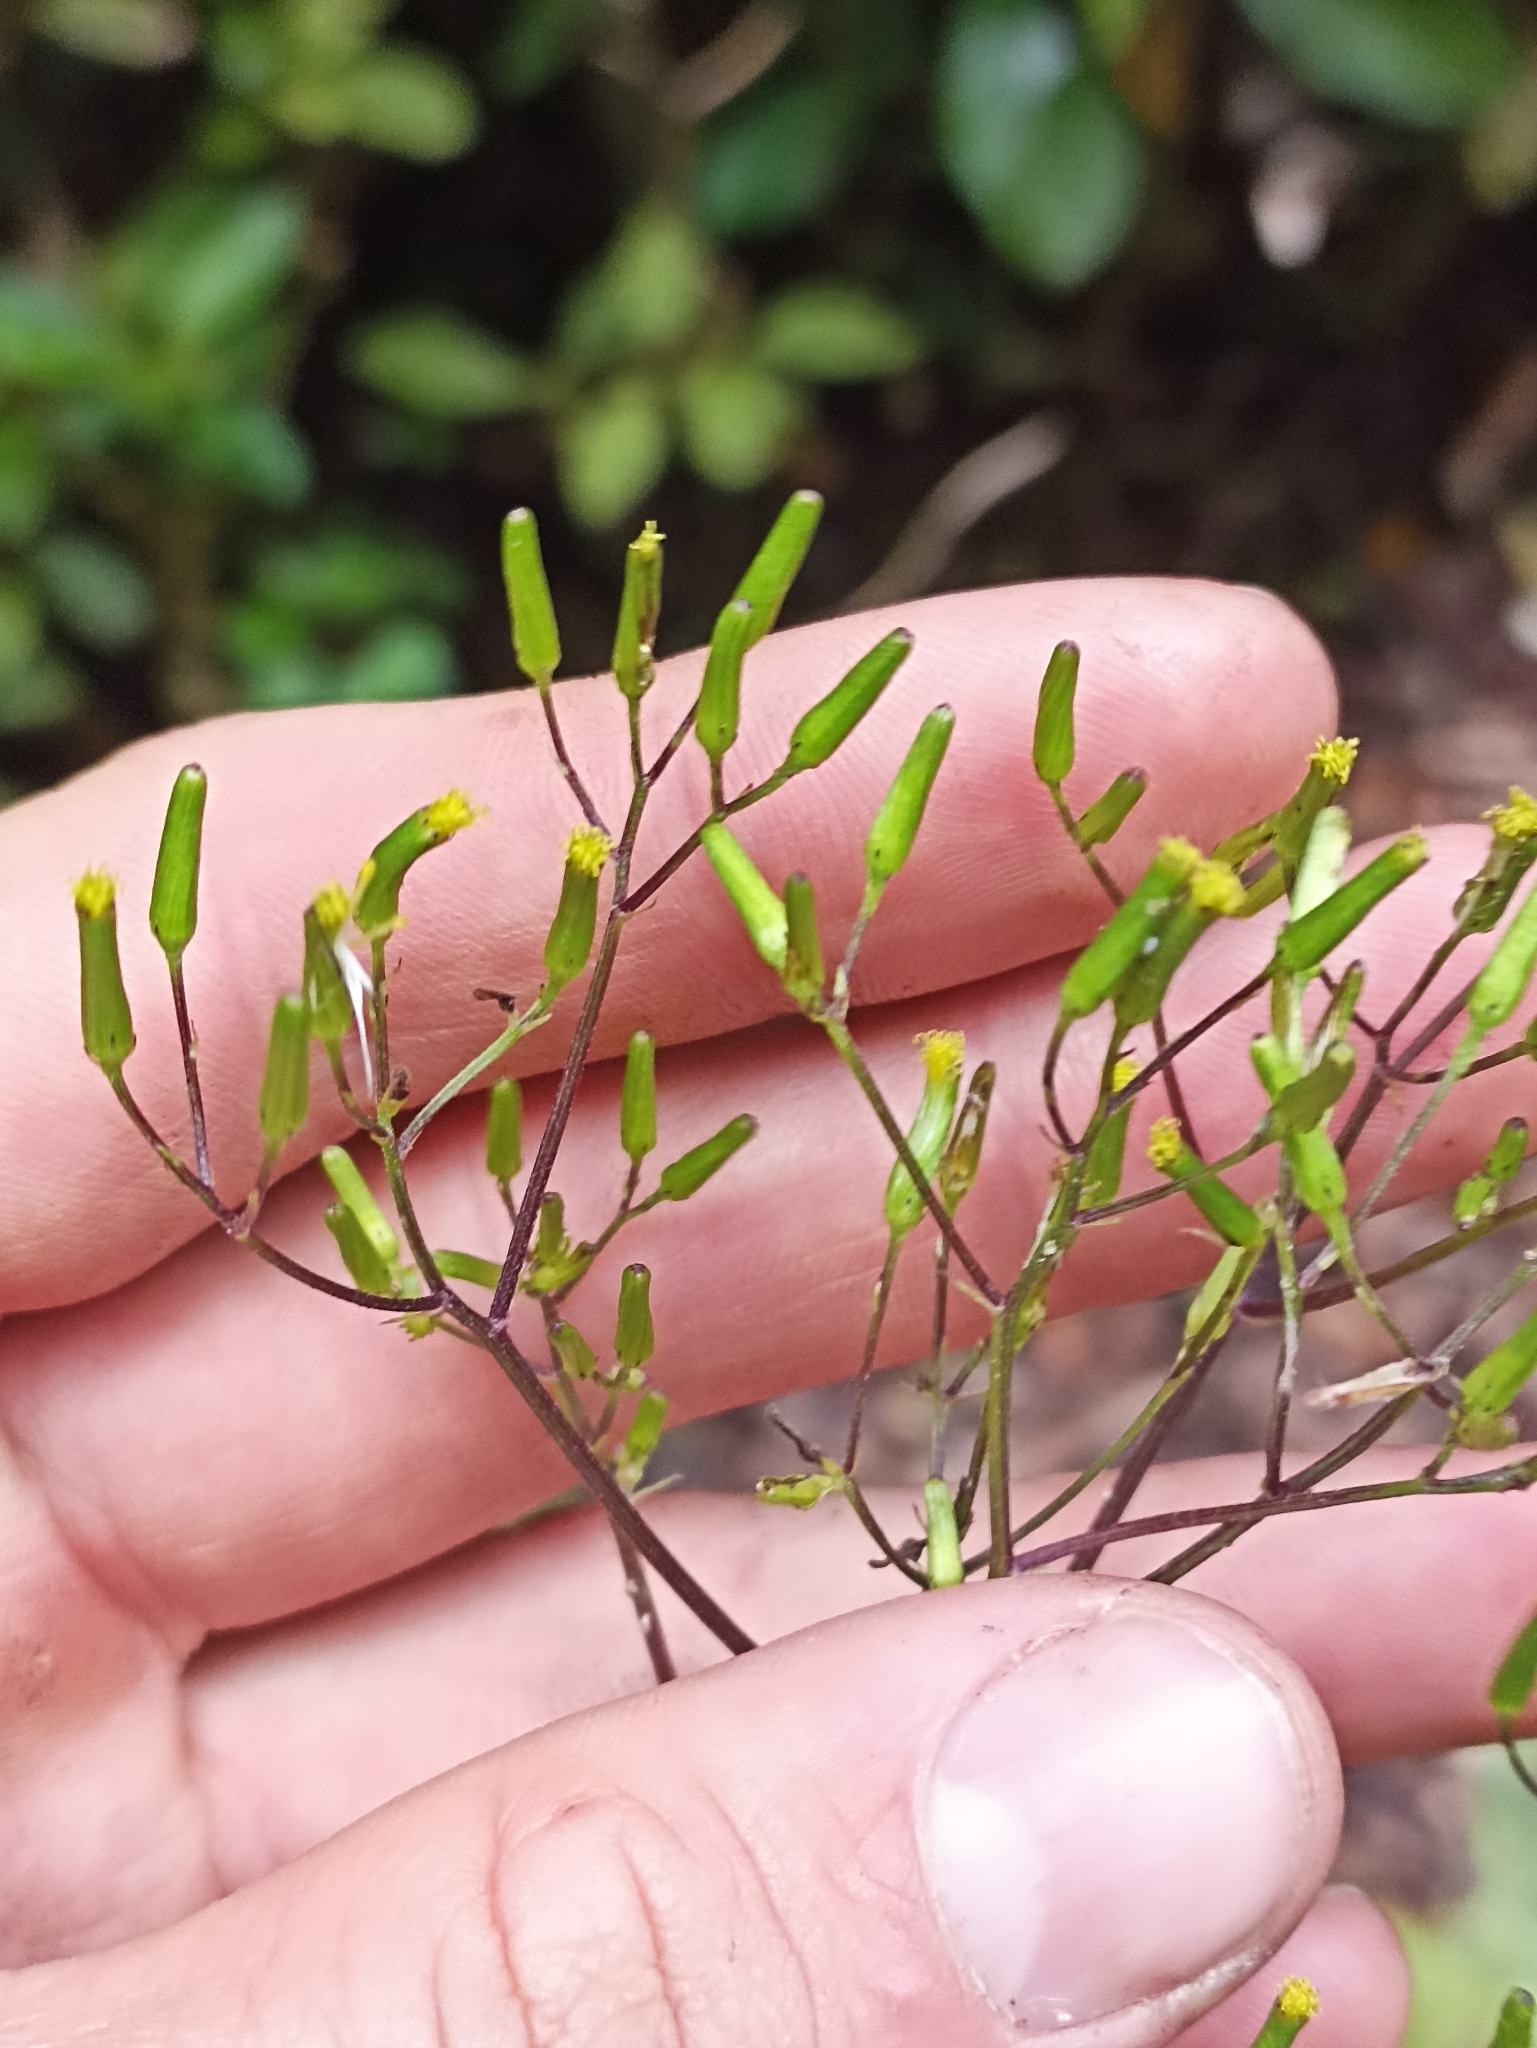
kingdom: Plantae
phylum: Tracheophyta
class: Magnoliopsida
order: Asterales
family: Asteraceae
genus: Senecio
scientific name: Senecio minimus
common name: Toothed fireweed
